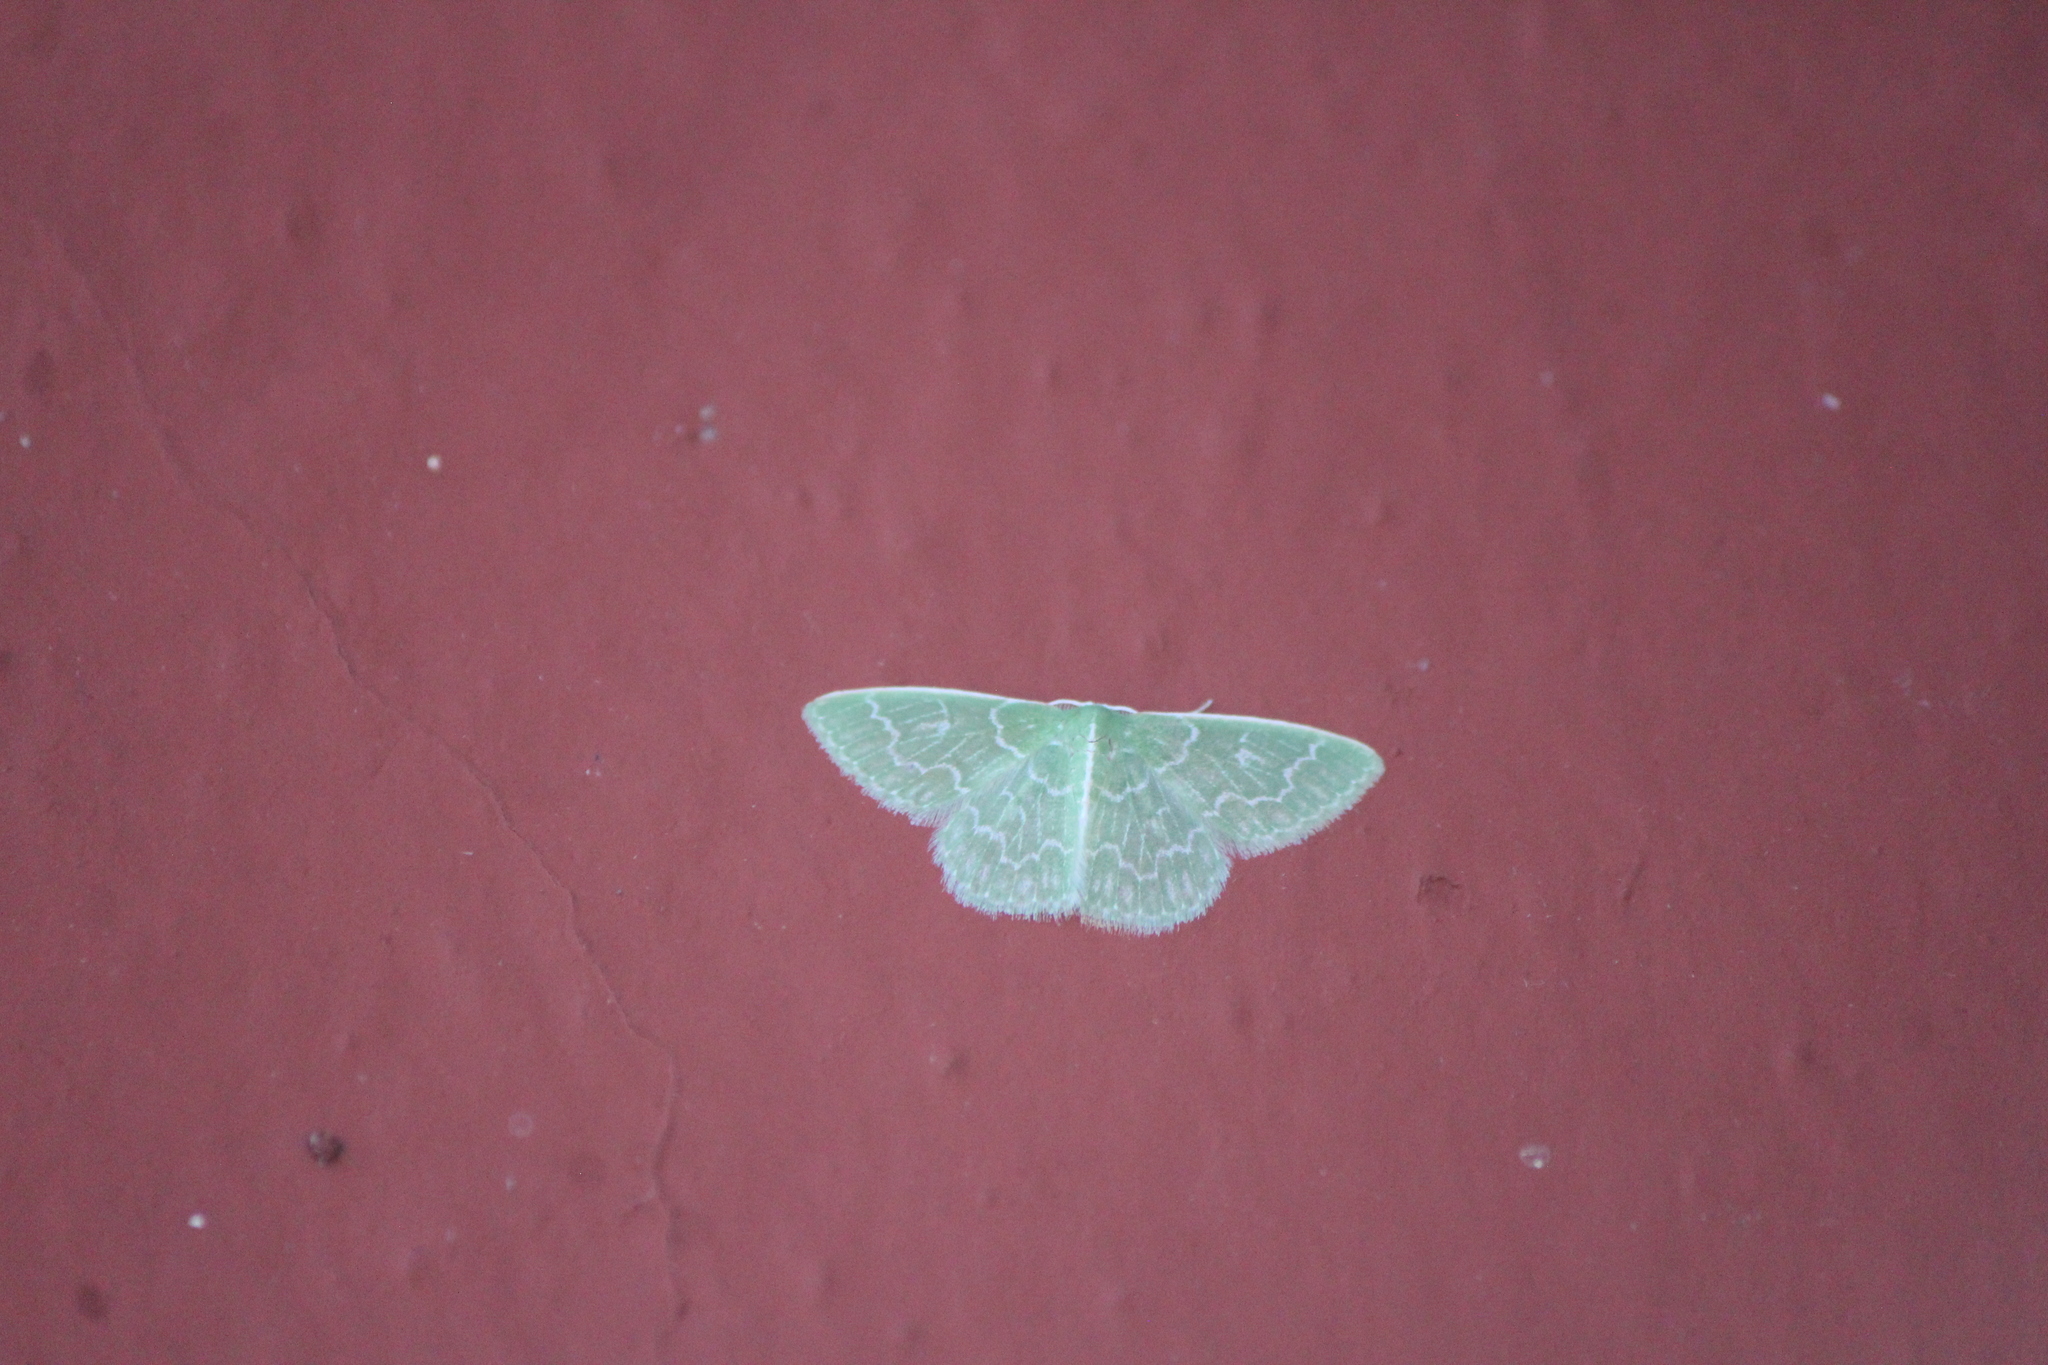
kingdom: Animalia
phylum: Arthropoda
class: Insecta
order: Lepidoptera
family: Geometridae
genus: Synchlora
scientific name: Synchlora frondaria
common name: Southern emerald
